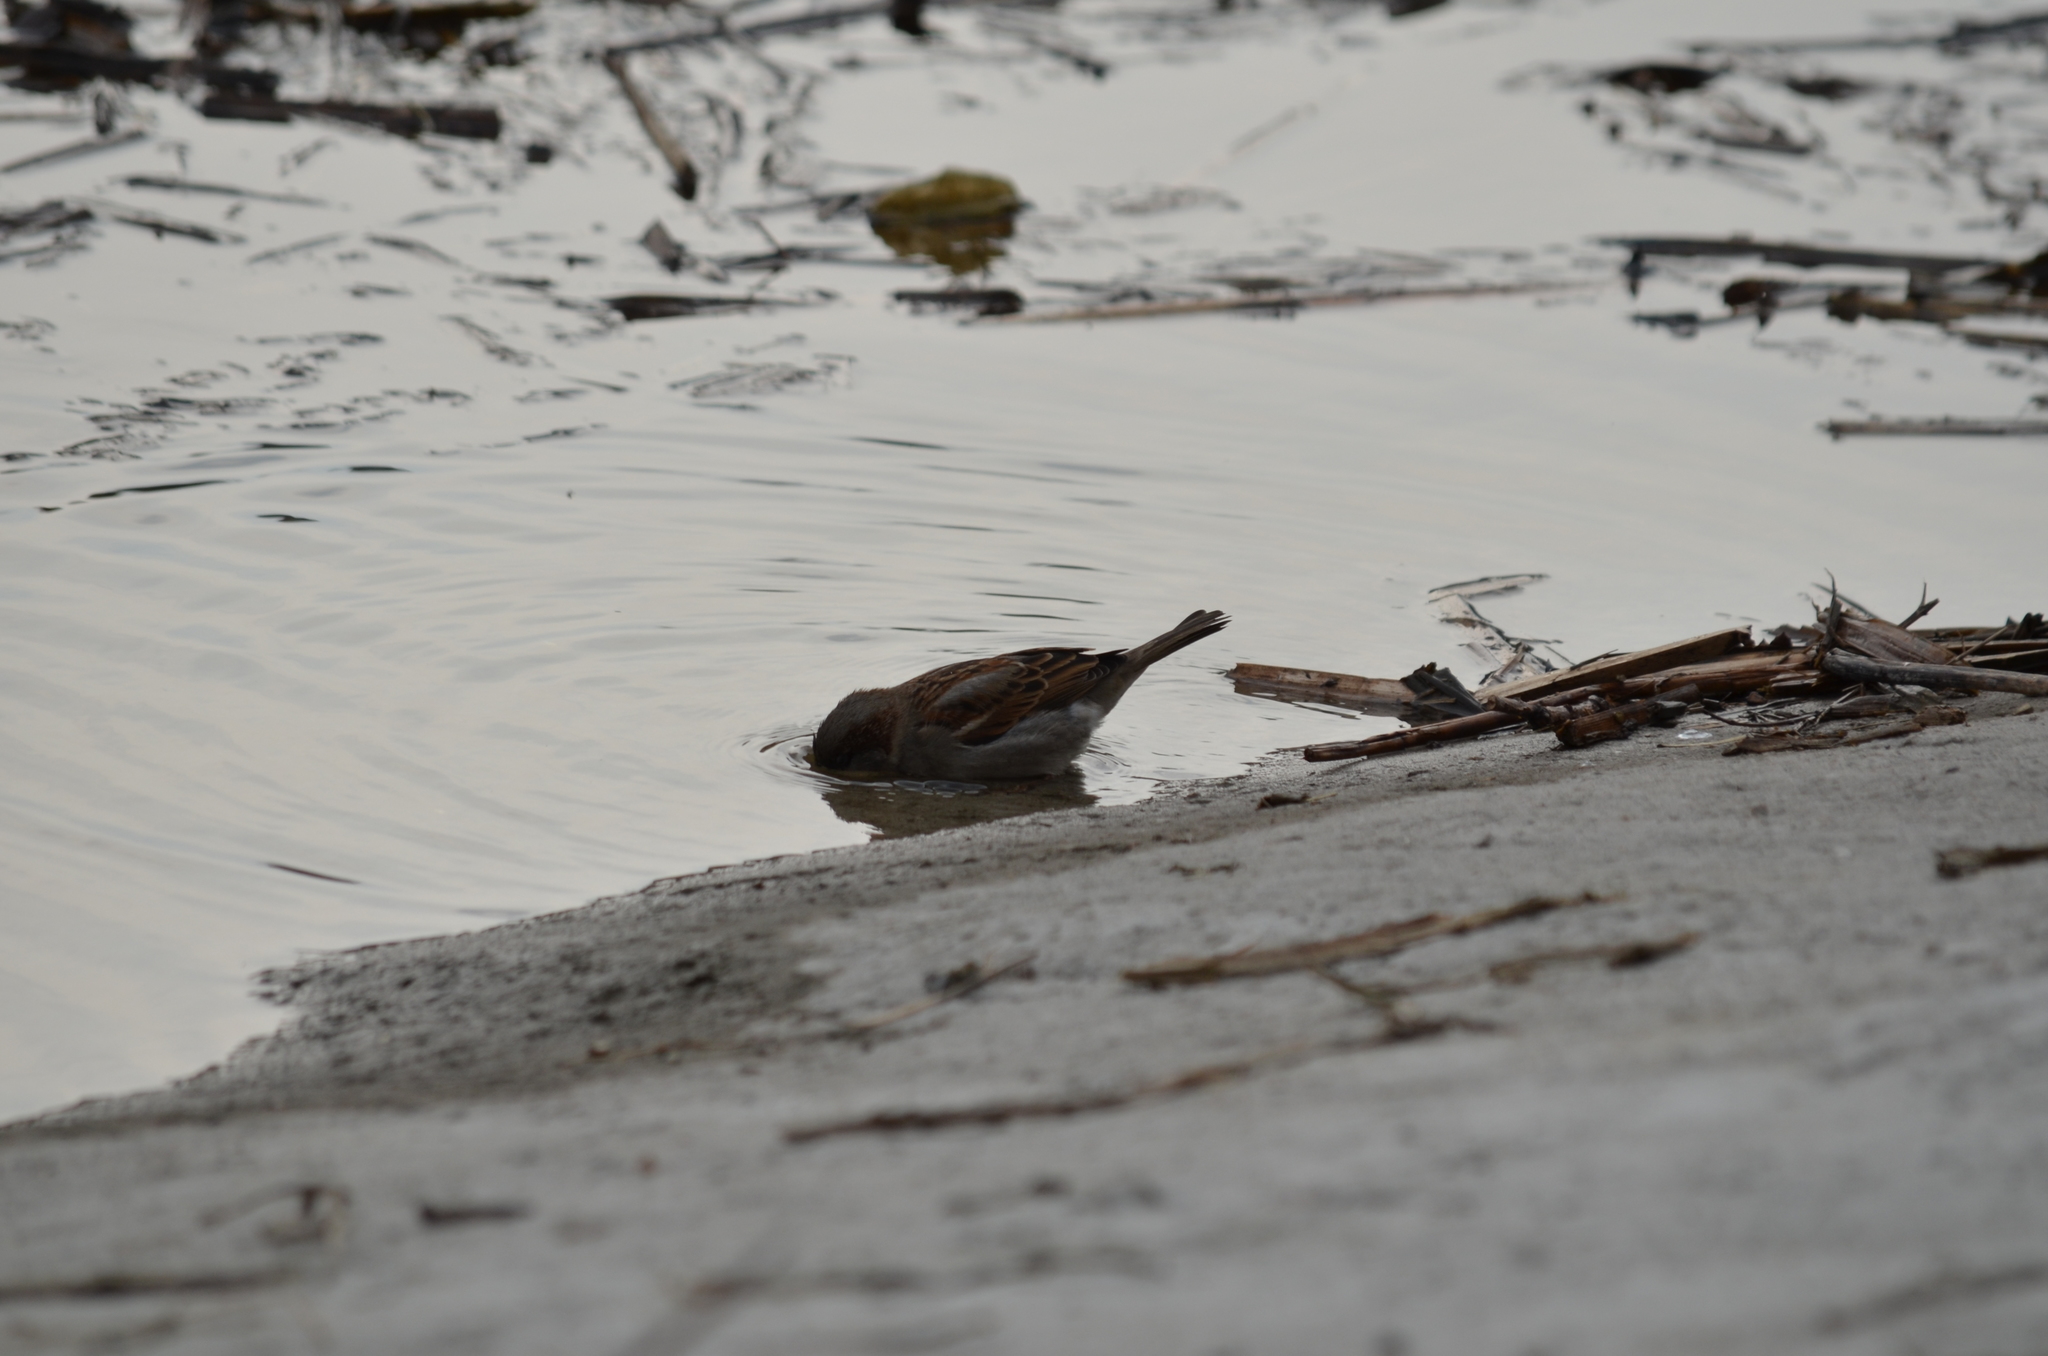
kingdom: Animalia
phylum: Chordata
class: Aves
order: Passeriformes
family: Passeridae
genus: Passer
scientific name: Passer domesticus
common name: House sparrow
